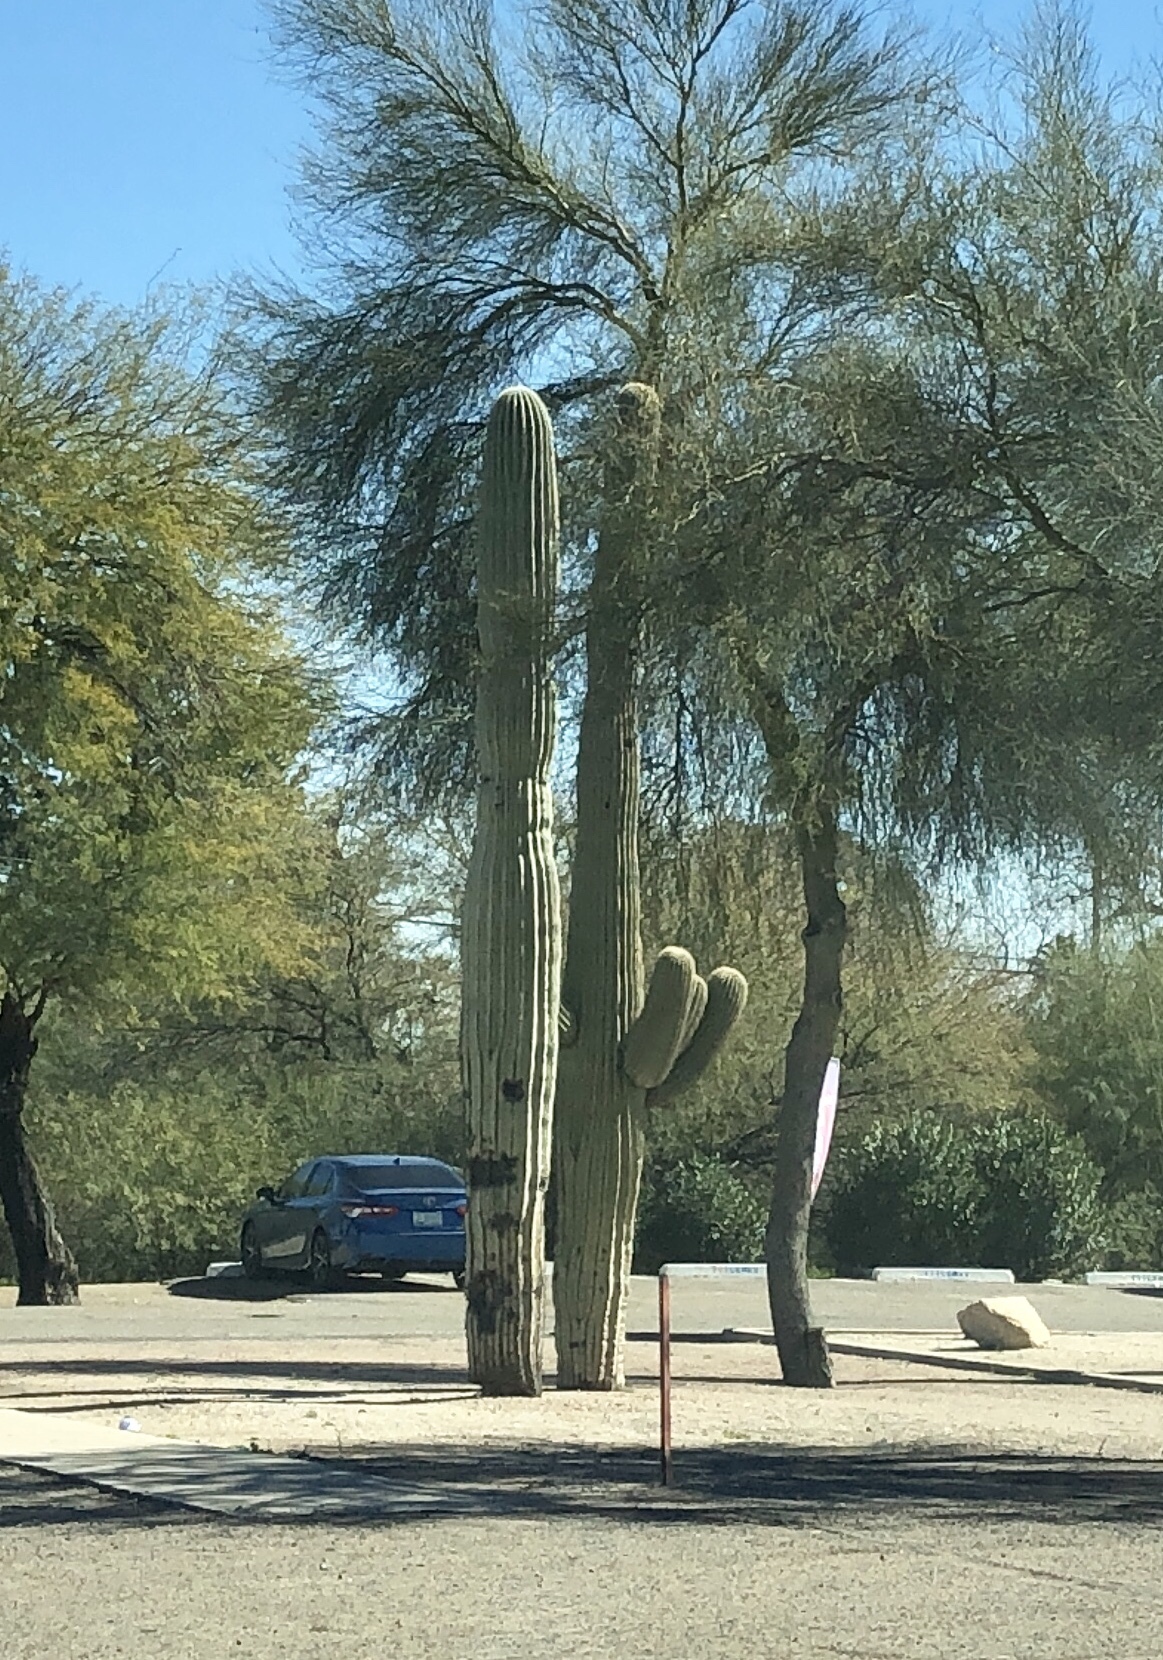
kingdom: Plantae
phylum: Tracheophyta
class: Magnoliopsida
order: Caryophyllales
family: Cactaceae
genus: Carnegiea
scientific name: Carnegiea gigantea
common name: Saguaro
